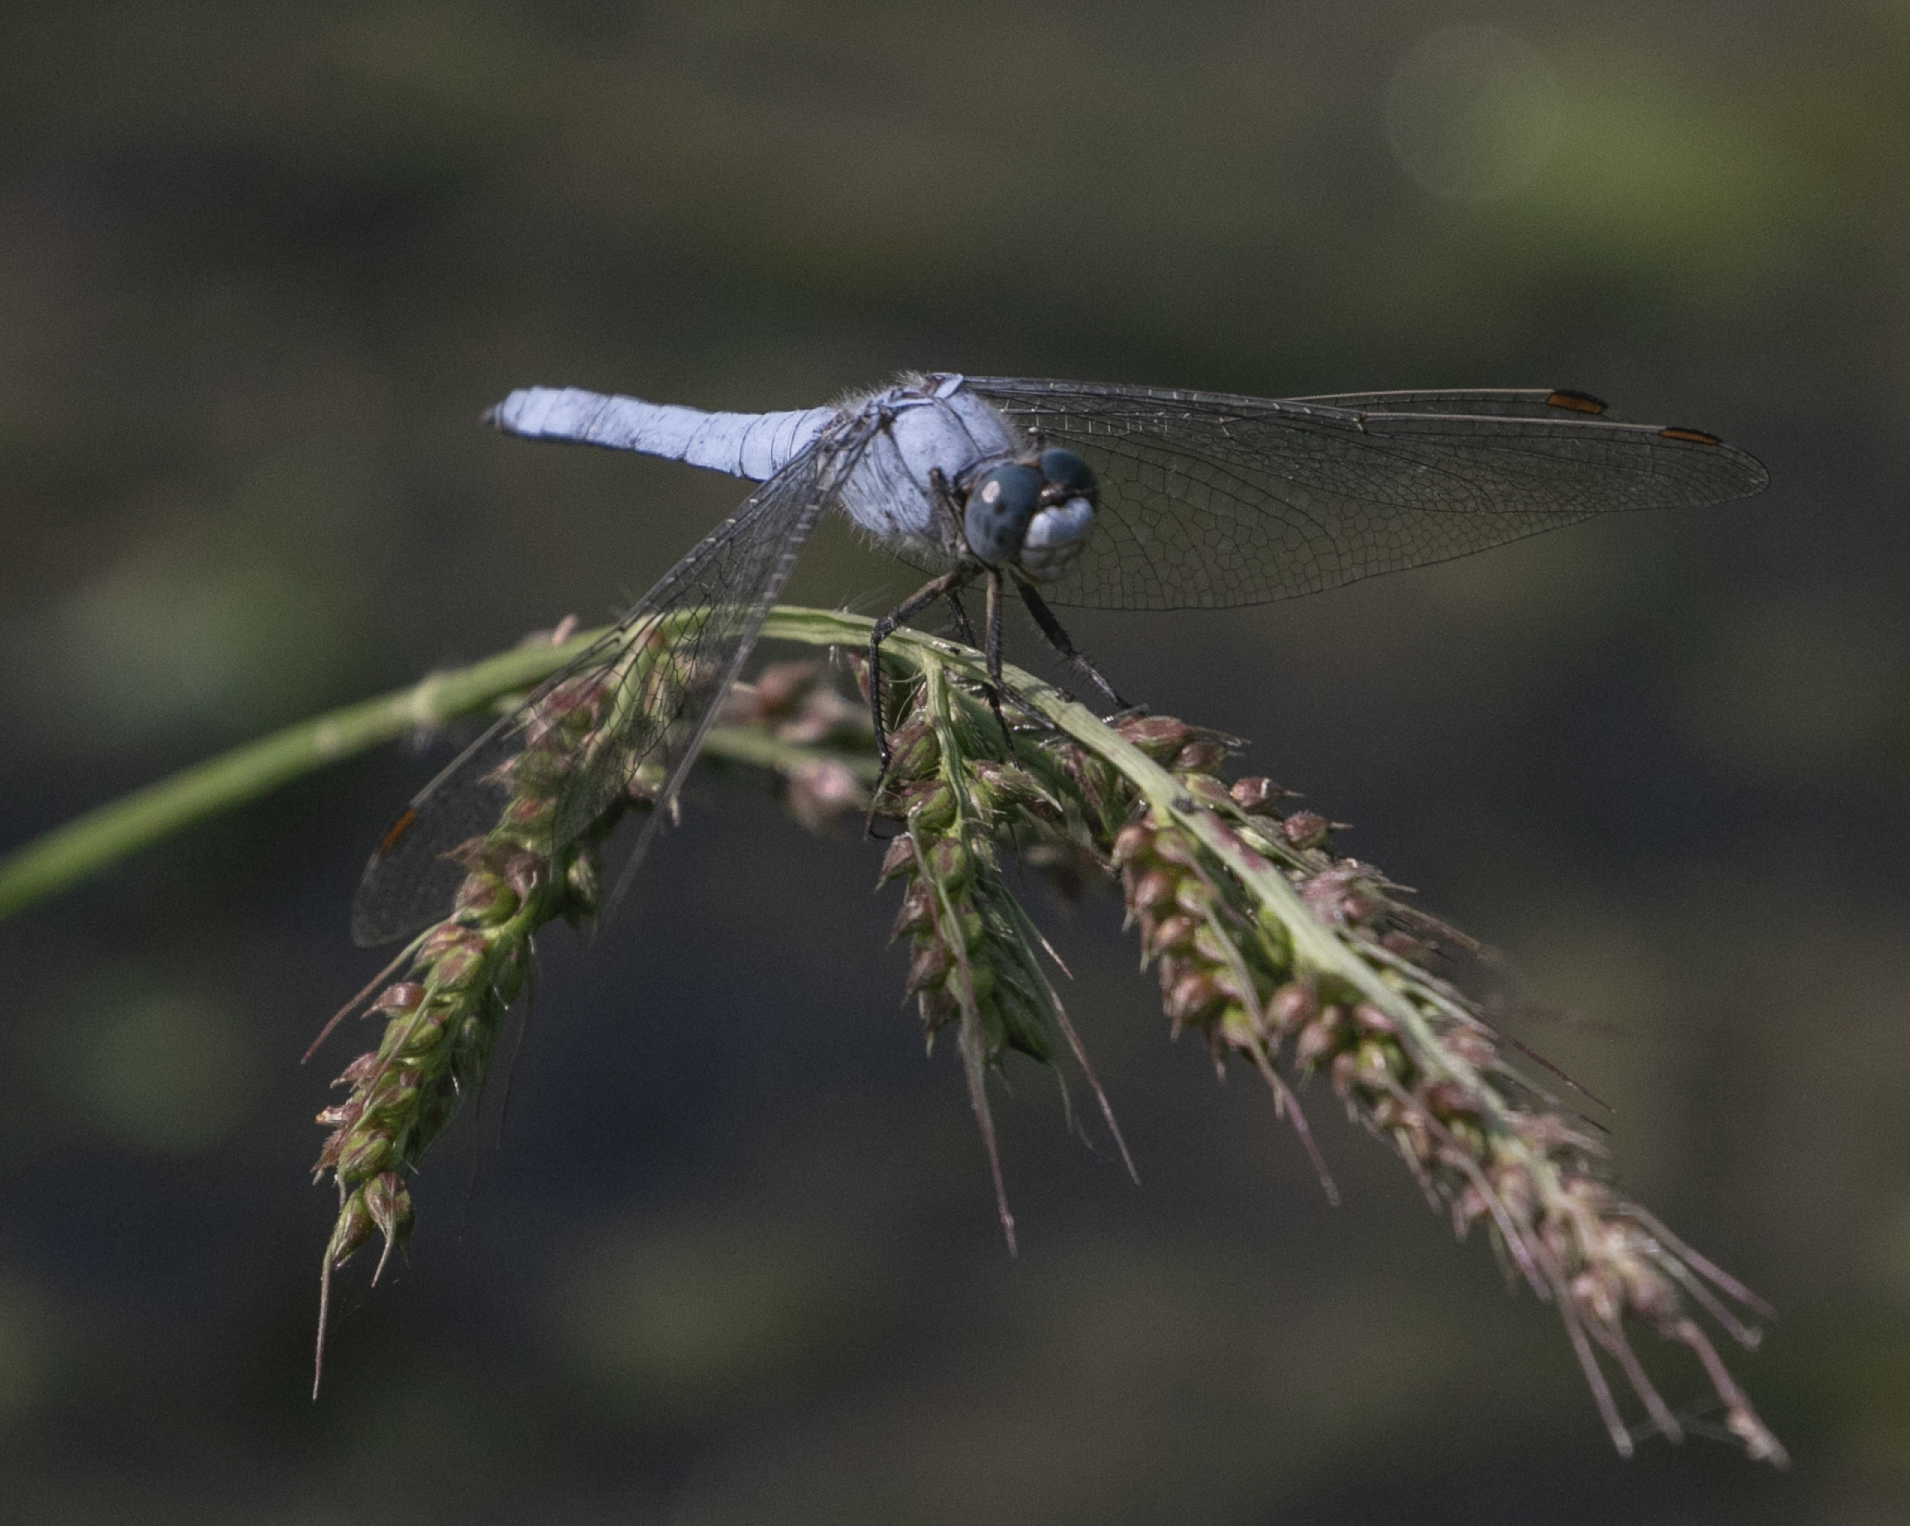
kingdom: Animalia
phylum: Arthropoda
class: Insecta
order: Odonata
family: Libellulidae
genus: Orthetrum
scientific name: Orthetrum brunneum
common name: Southern skimmer
